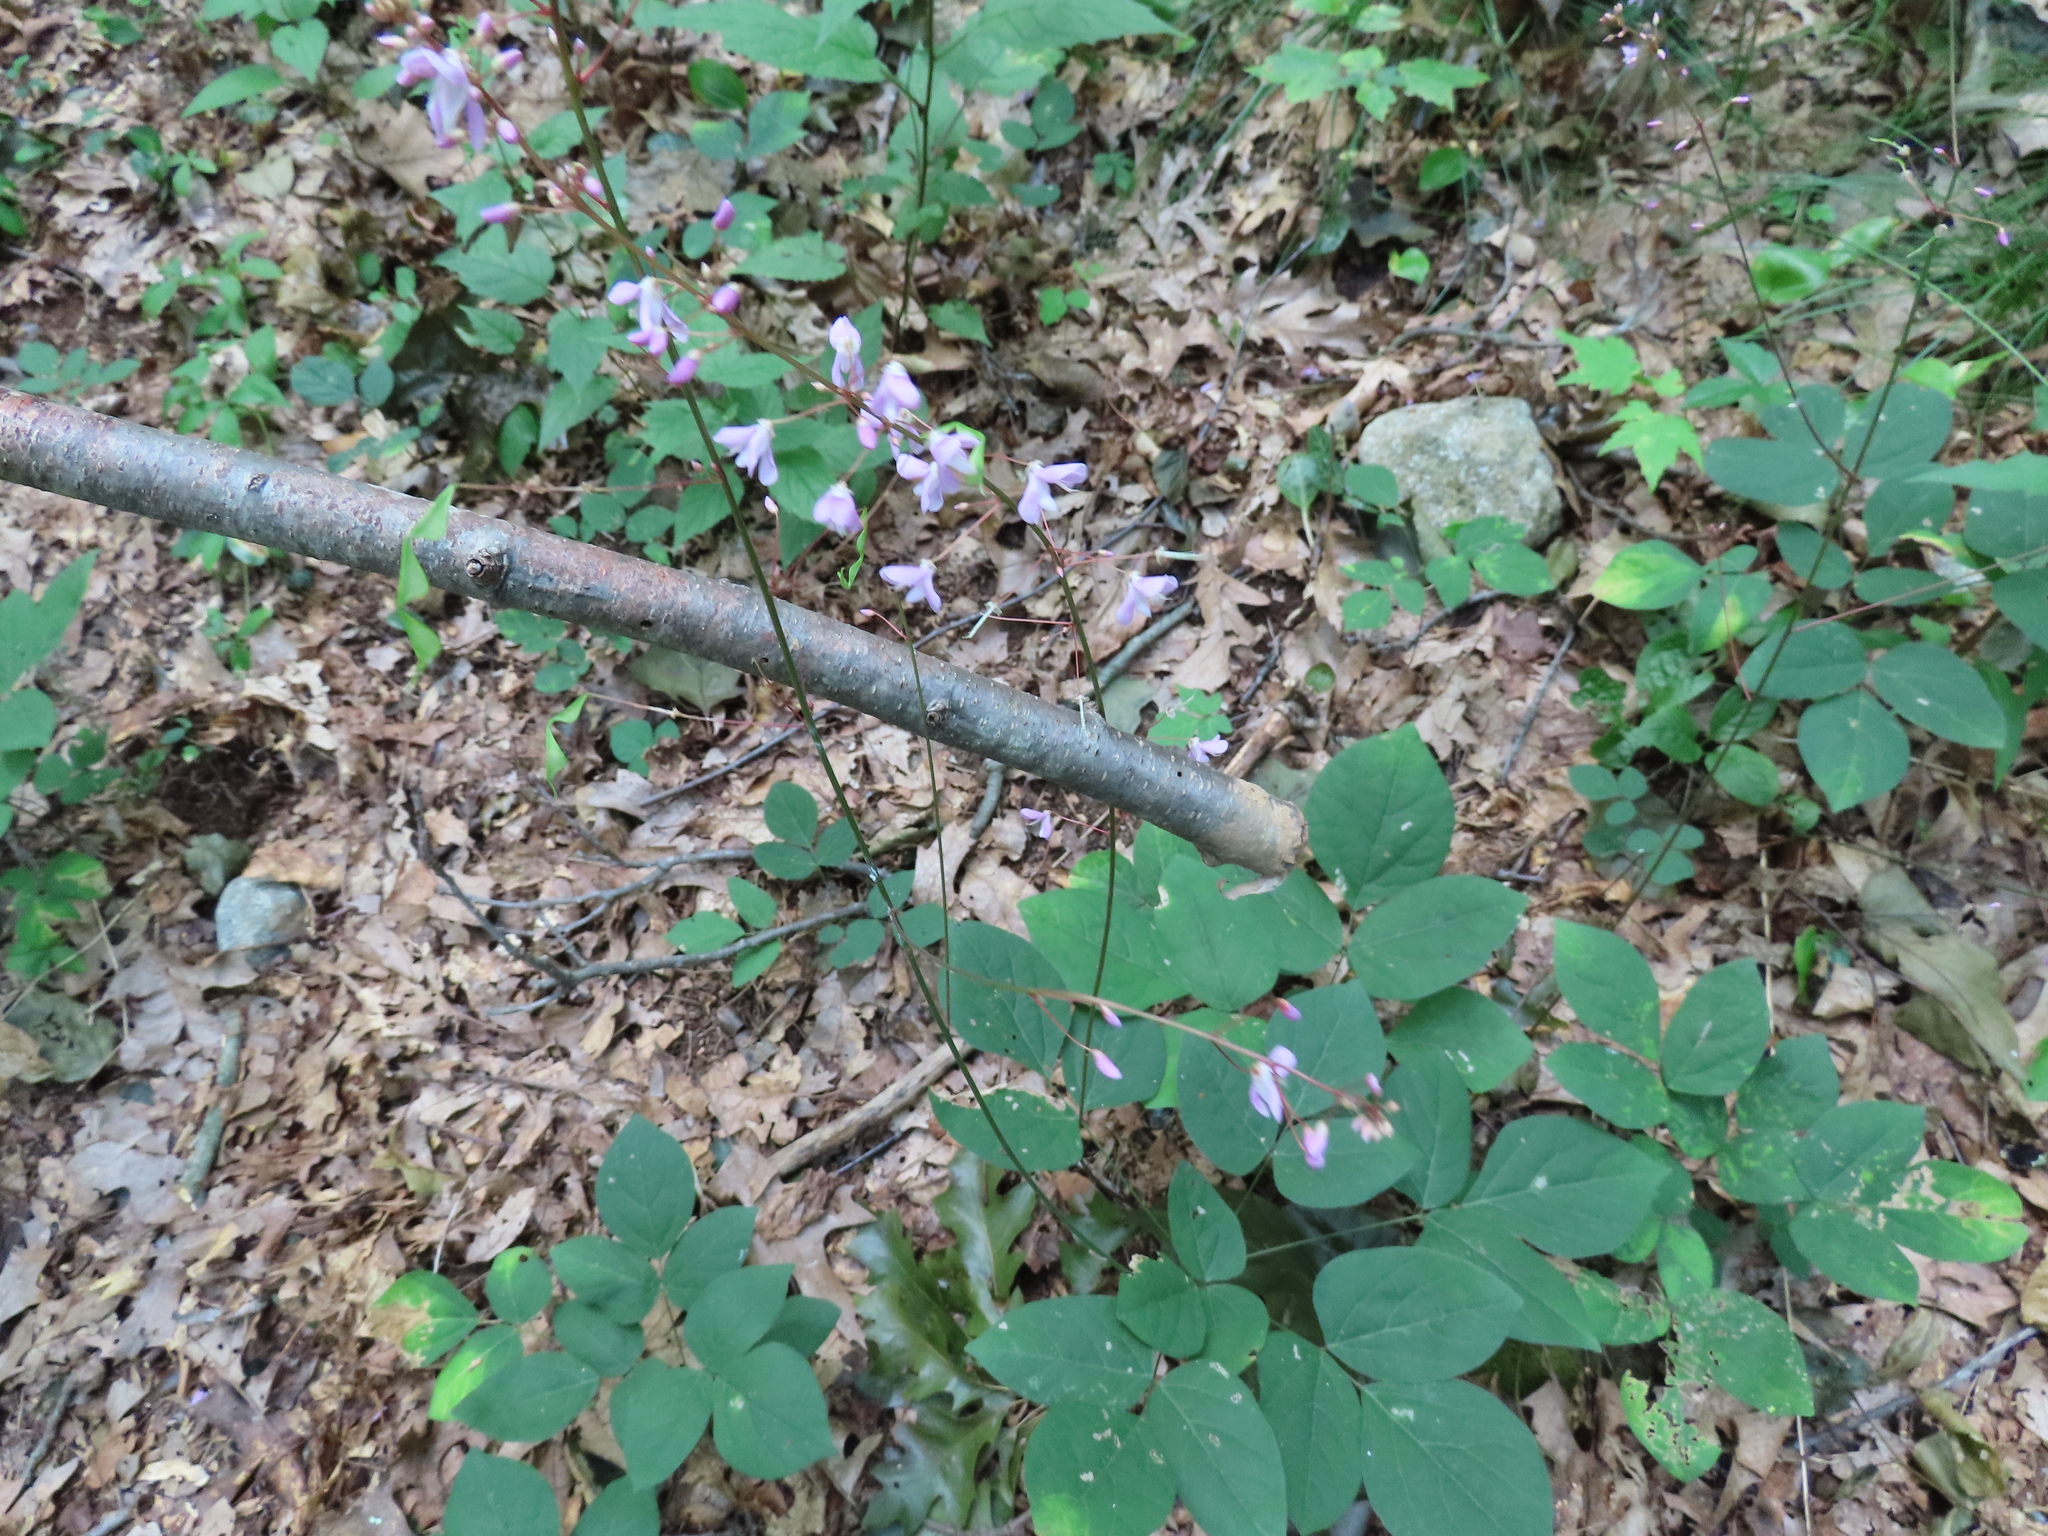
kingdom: Plantae
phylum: Tracheophyta
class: Magnoliopsida
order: Fabales
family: Fabaceae
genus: Hylodesmum
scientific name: Hylodesmum nudiflorum
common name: Bare-stemmed tick-trefoil
